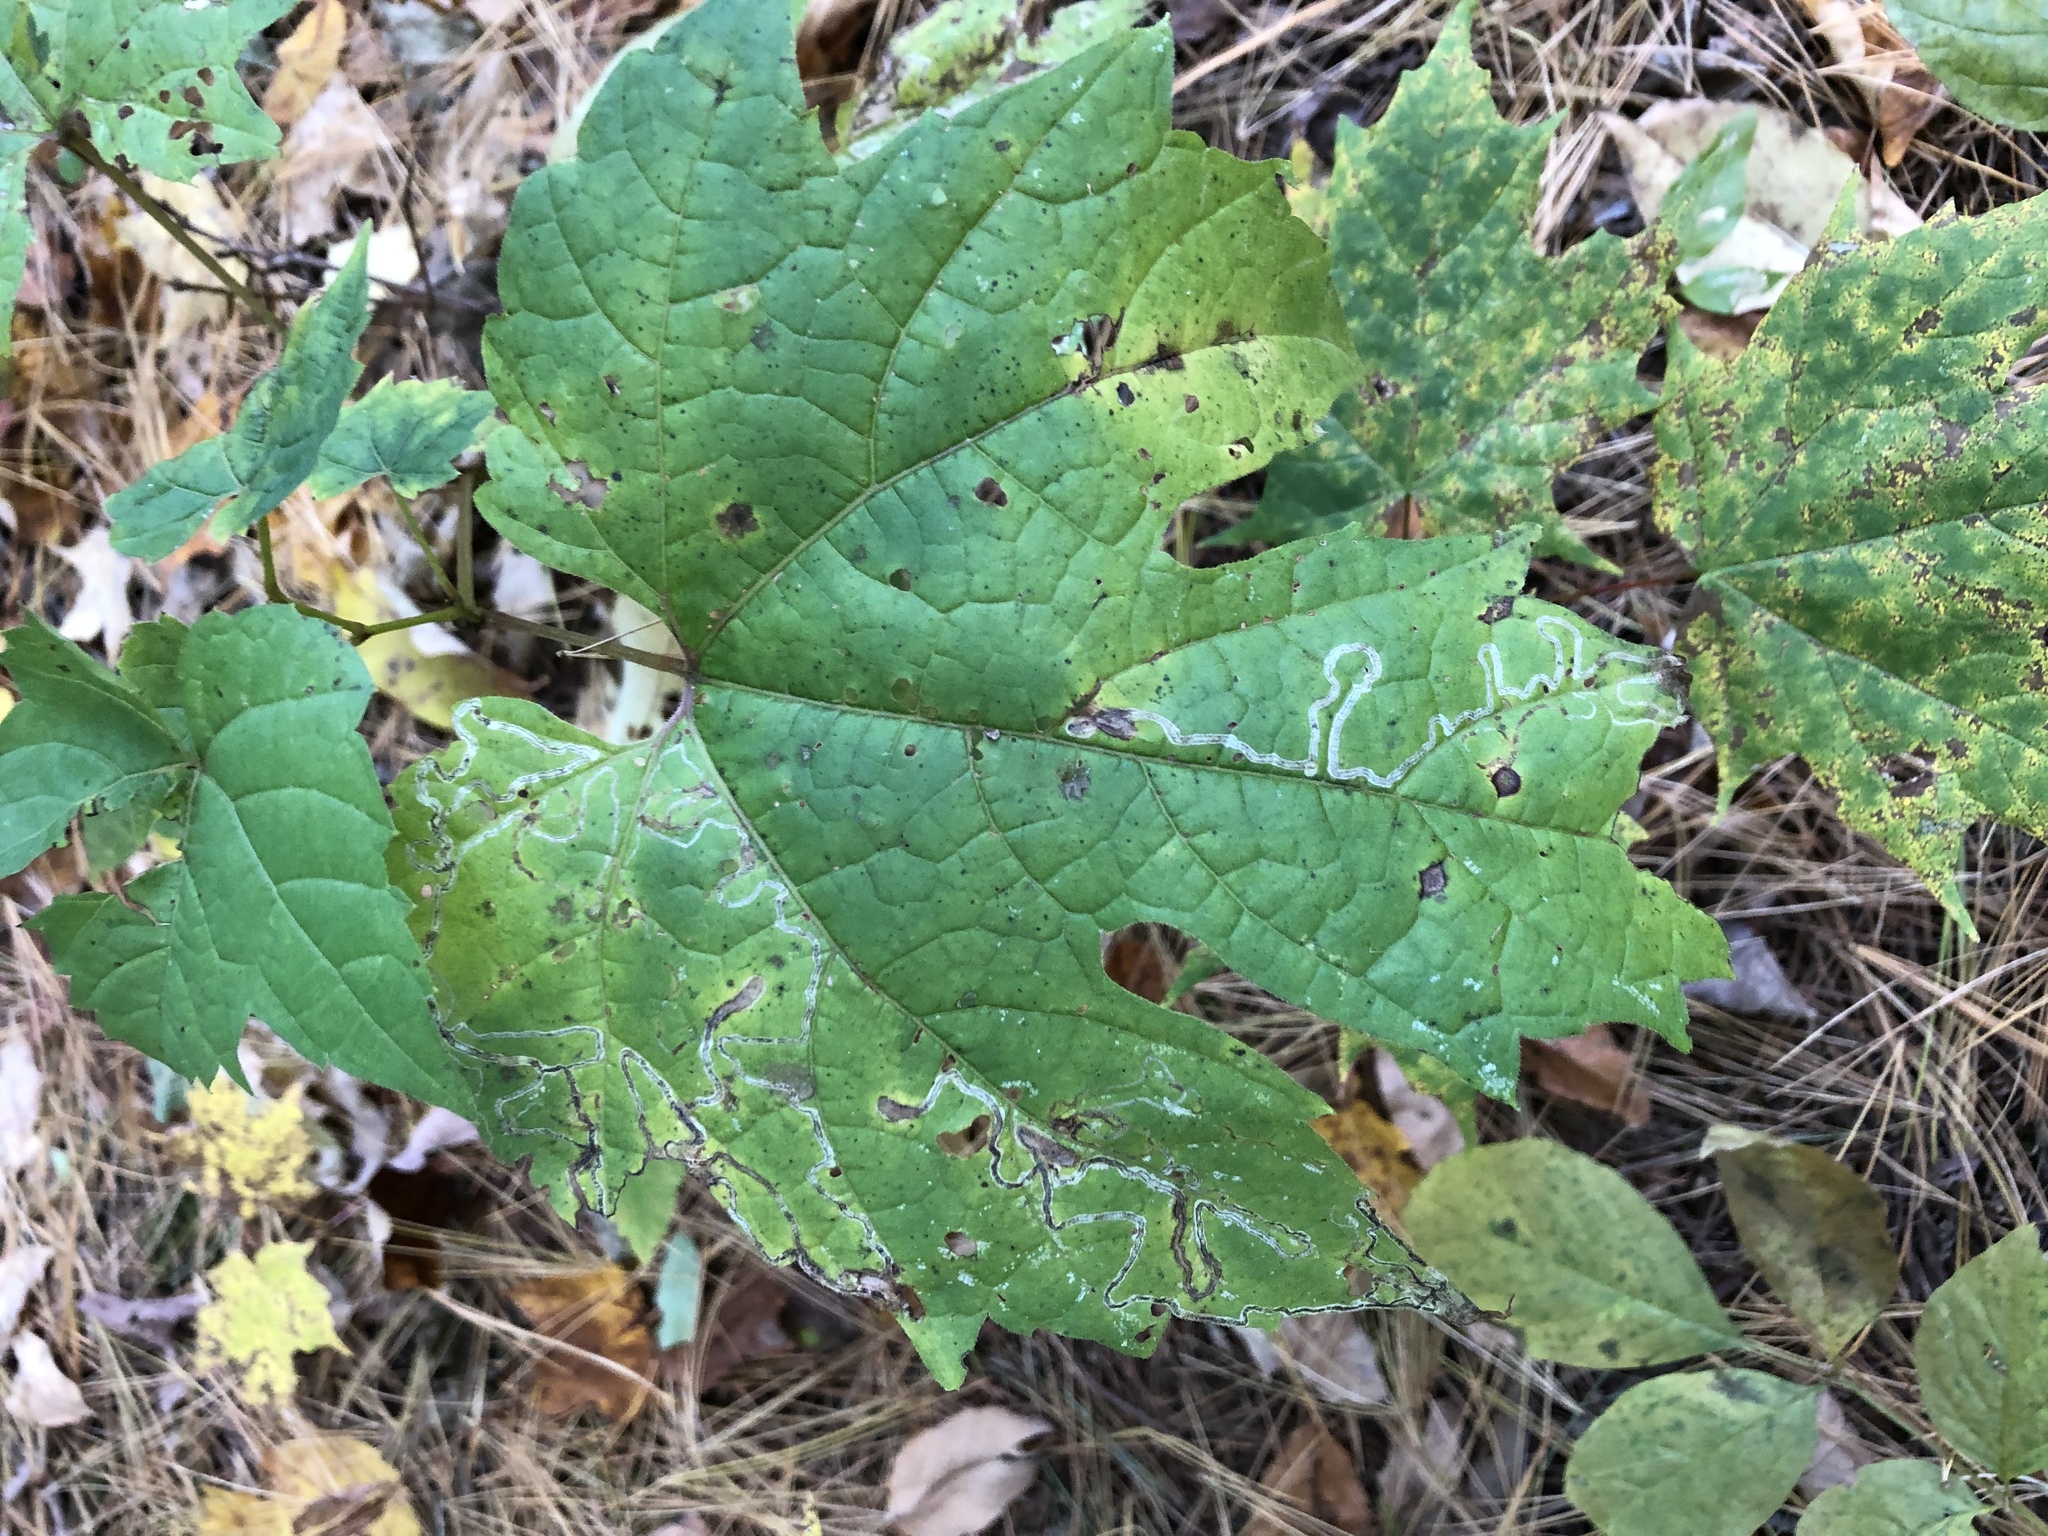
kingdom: Animalia
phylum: Arthropoda
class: Insecta
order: Lepidoptera
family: Gracillariidae
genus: Phyllocnistis
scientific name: Phyllocnistis vitifoliella
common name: Grape leaf-miner moth
